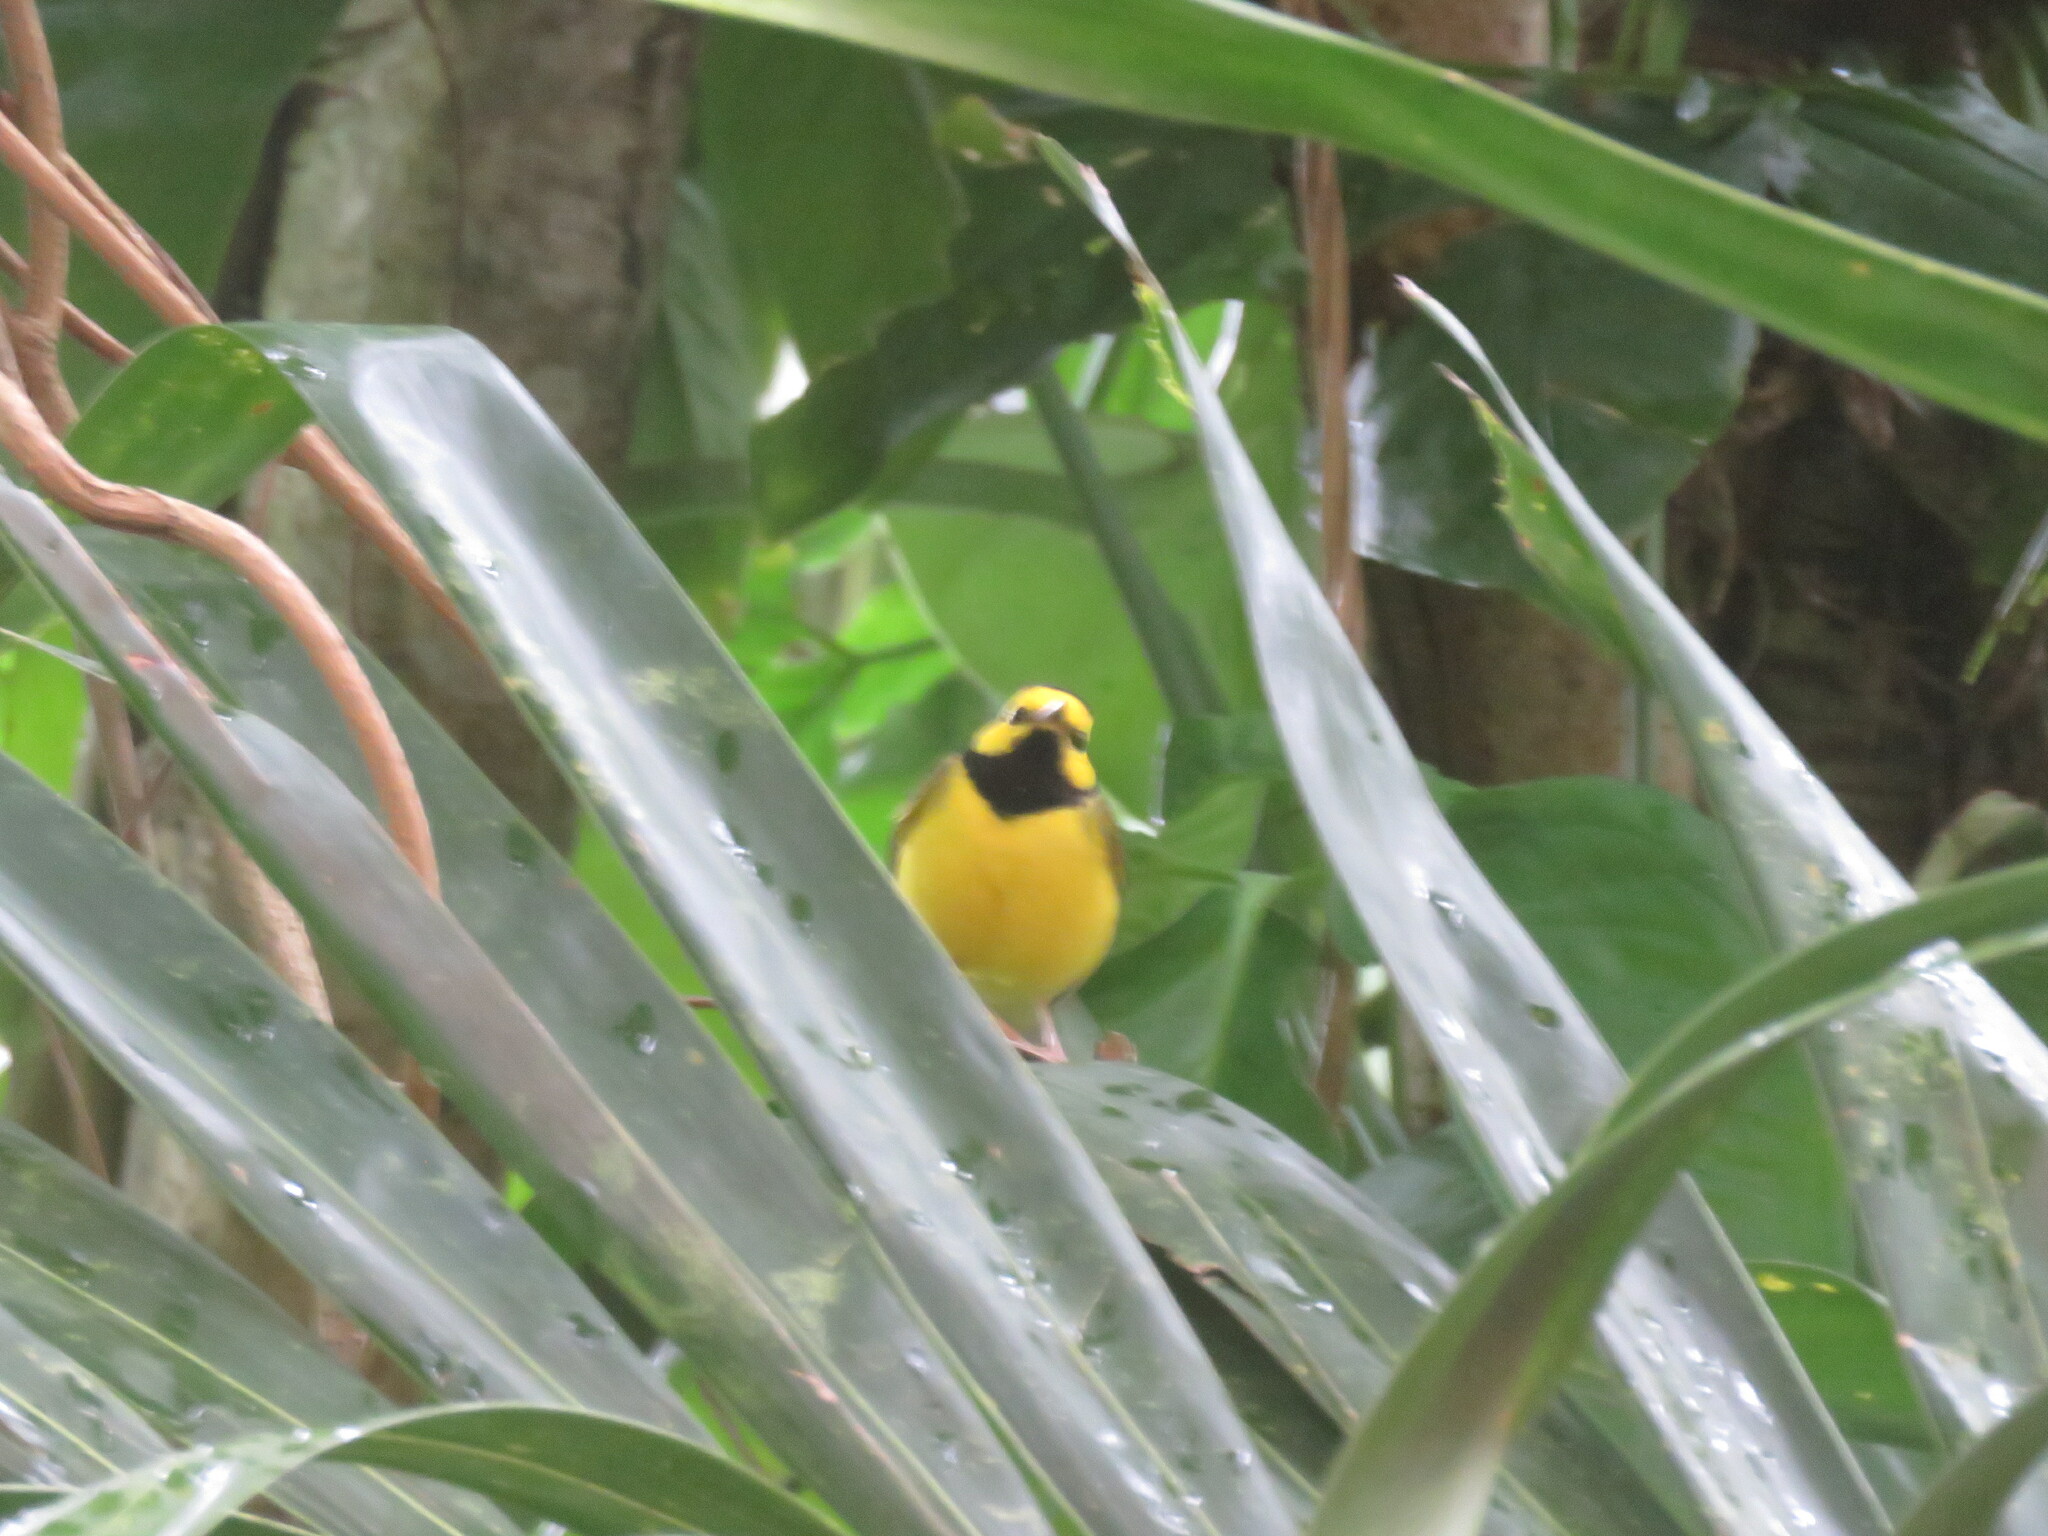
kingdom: Animalia
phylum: Chordata
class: Aves
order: Passeriformes
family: Parulidae
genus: Setophaga
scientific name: Setophaga citrina
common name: Hooded warbler
